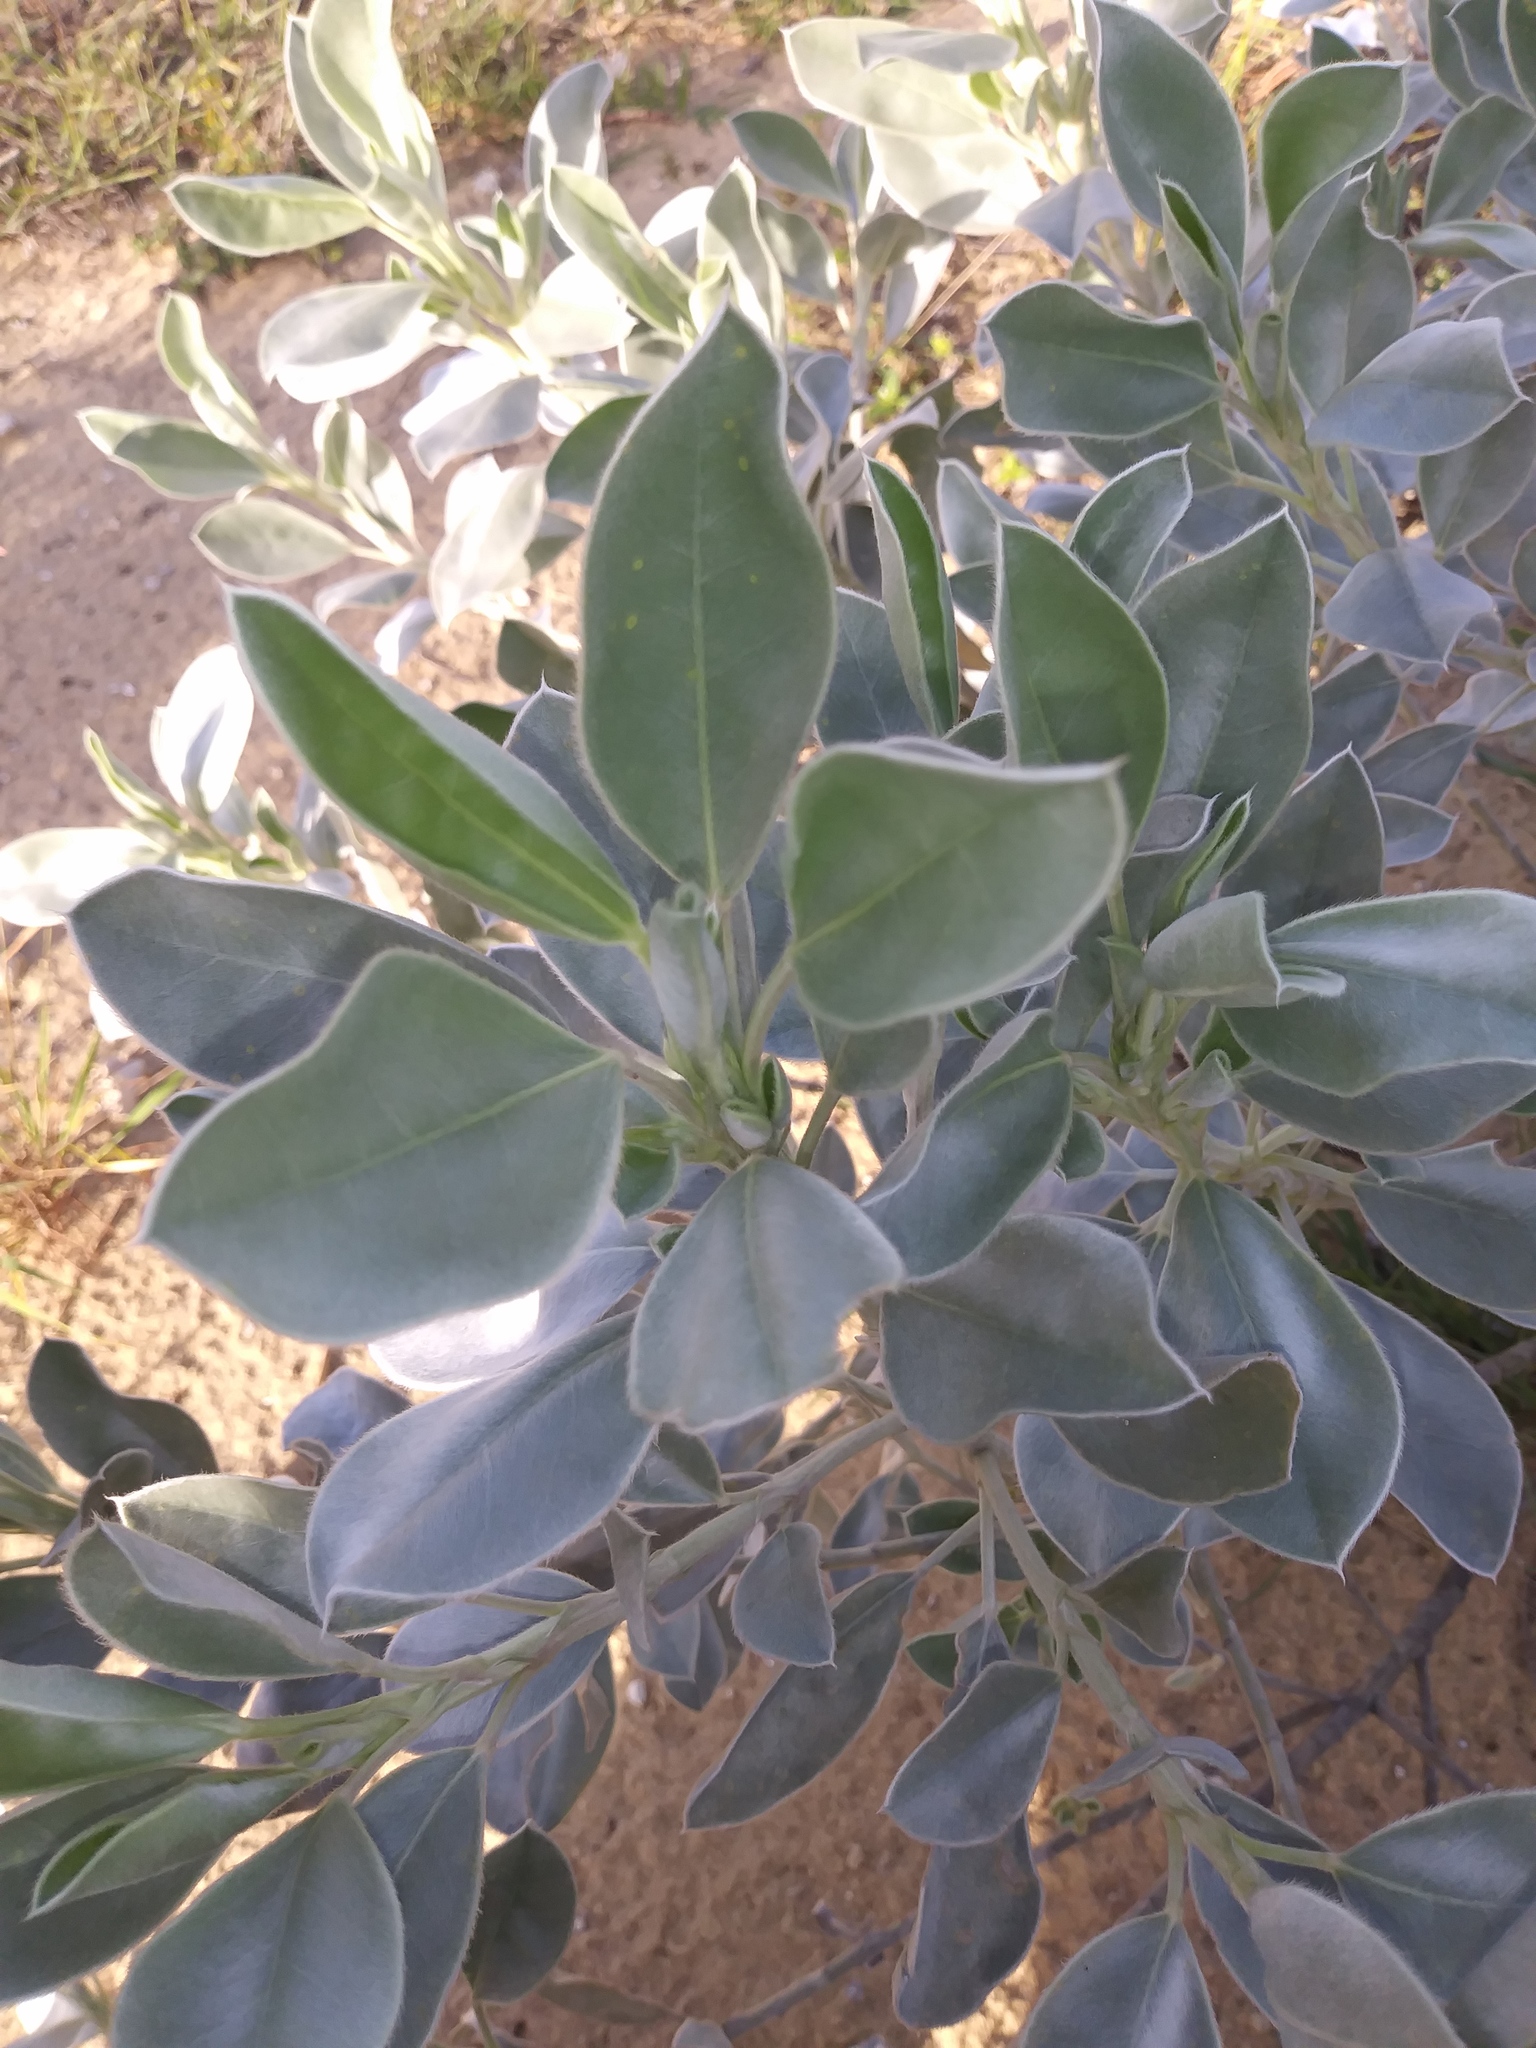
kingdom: Plantae
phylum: Tracheophyta
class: Magnoliopsida
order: Fabales
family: Fabaceae
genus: Lupinus
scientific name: Lupinus cumulicola
